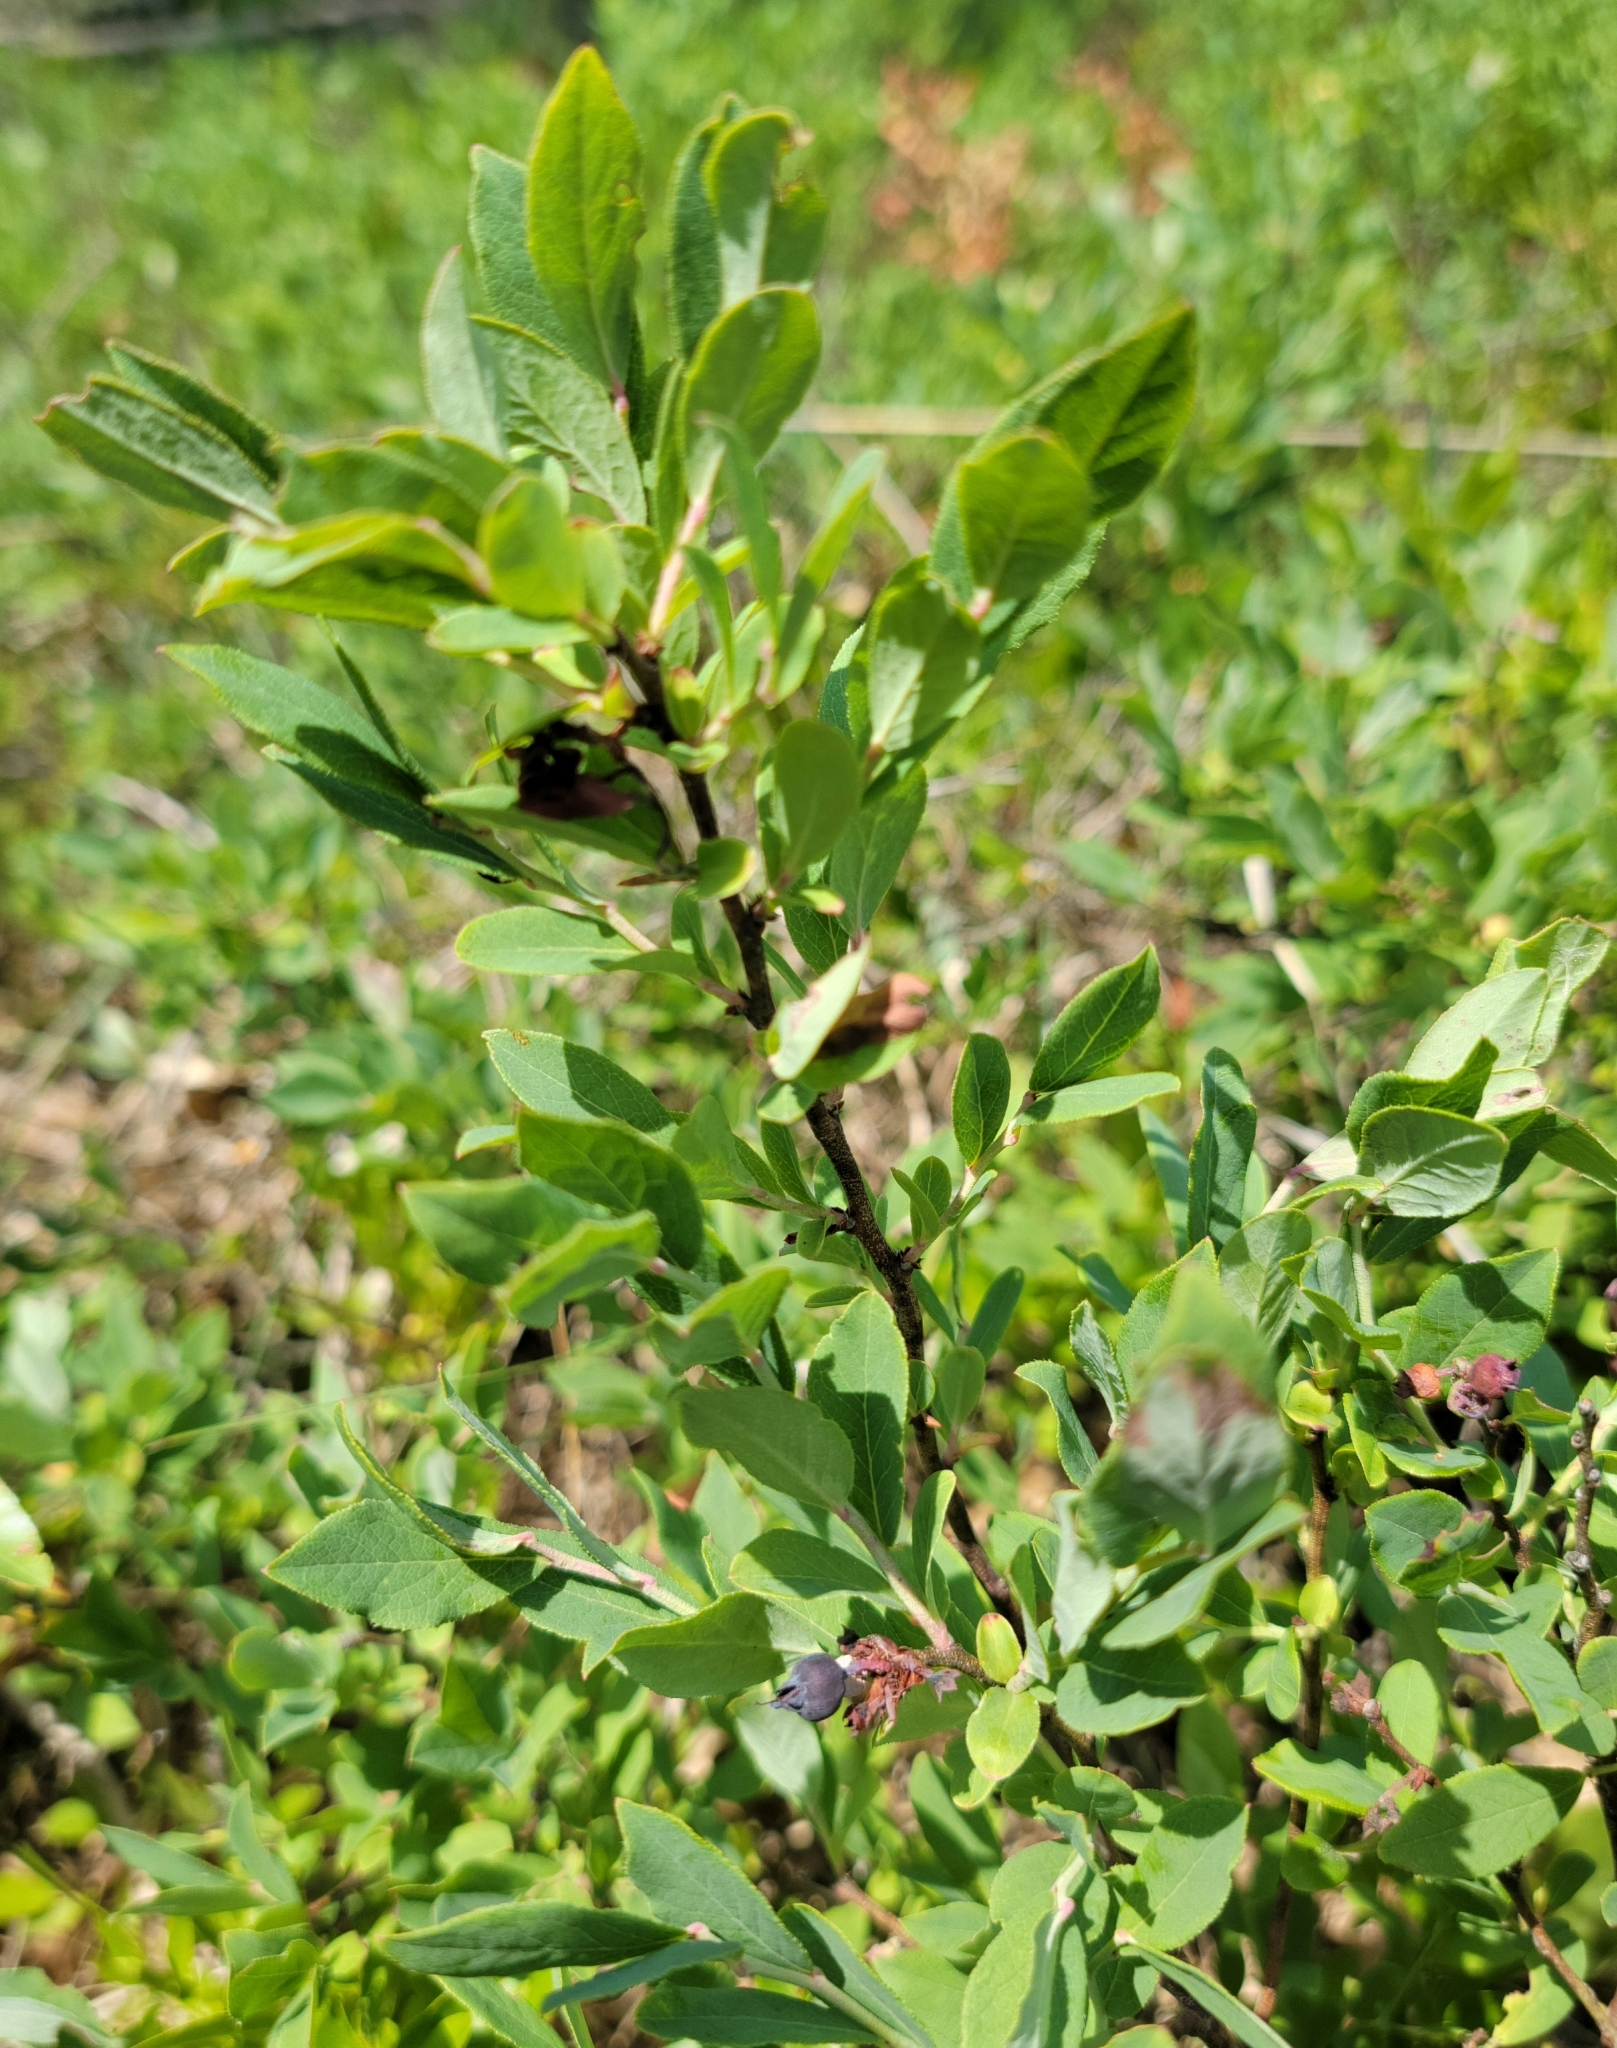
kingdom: Plantae
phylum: Tracheophyta
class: Magnoliopsida
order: Ericales
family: Ericaceae
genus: Vaccinium
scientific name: Vaccinium angustifolium
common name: Early lowbush blueberry
